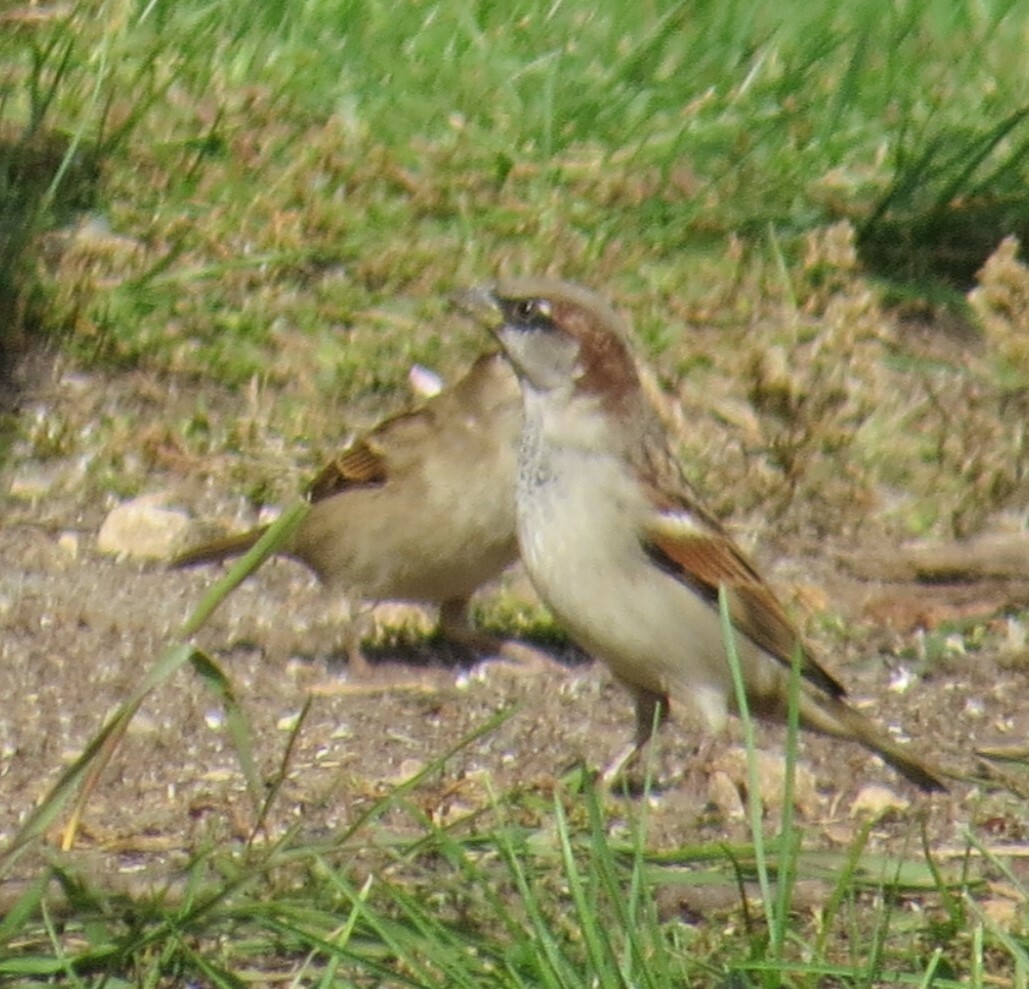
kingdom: Animalia
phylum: Chordata
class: Aves
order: Passeriformes
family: Passeridae
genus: Passer
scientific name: Passer domesticus
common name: House sparrow
